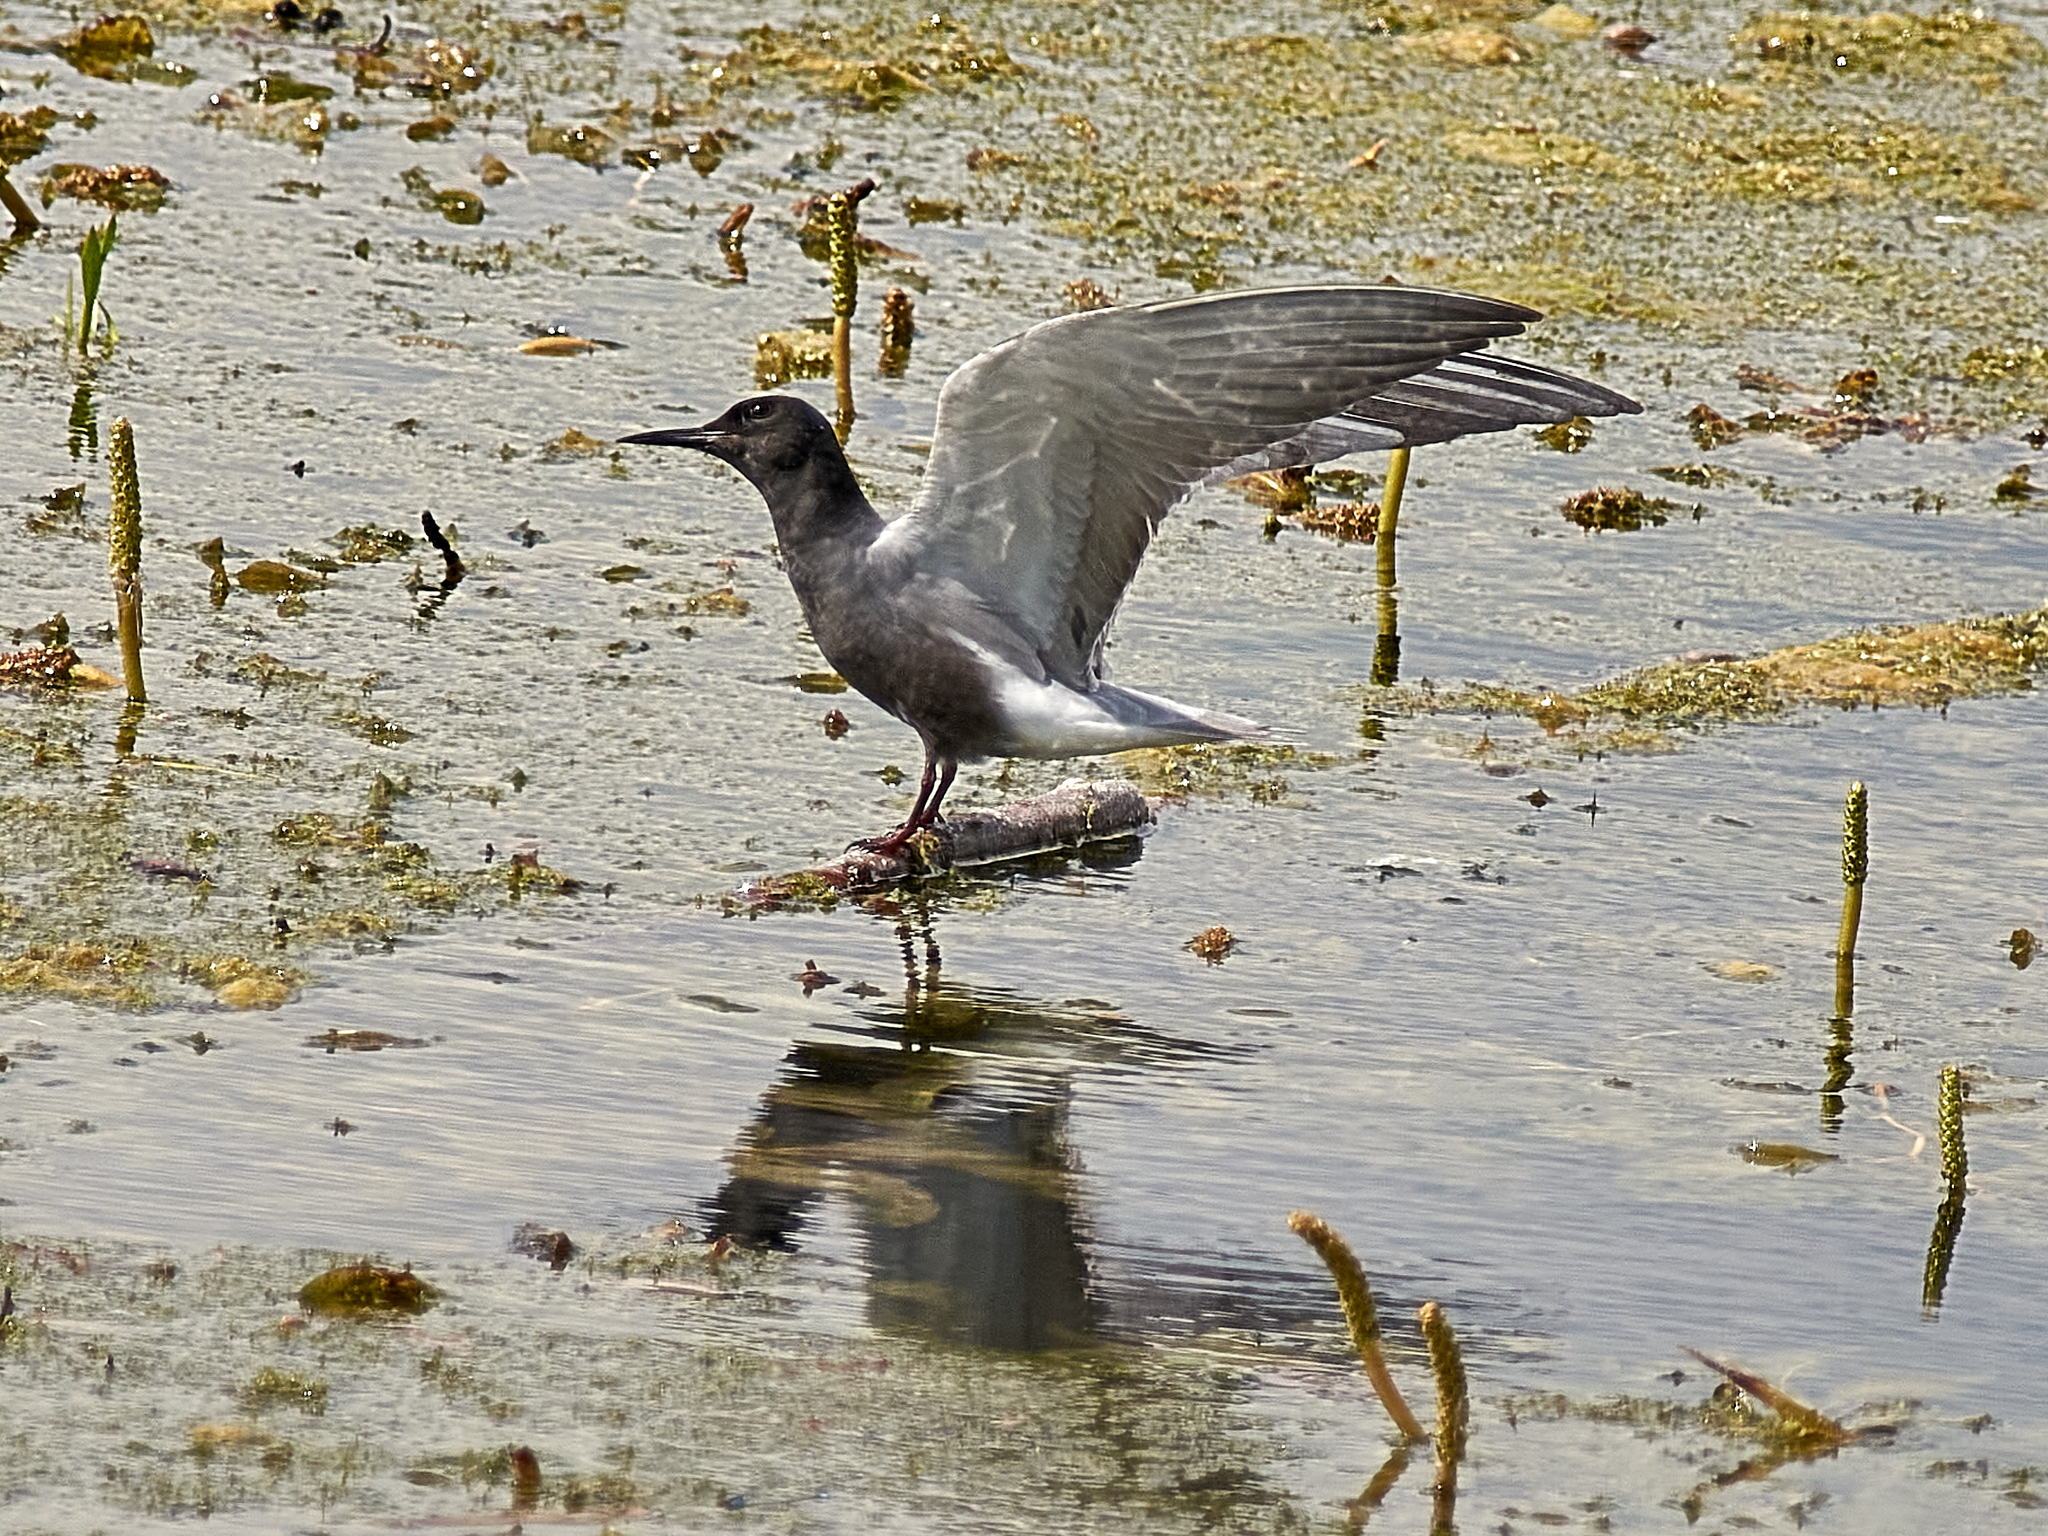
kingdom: Animalia
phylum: Chordata
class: Aves
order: Charadriiformes
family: Laridae
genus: Chlidonias
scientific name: Chlidonias niger
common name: Black tern
